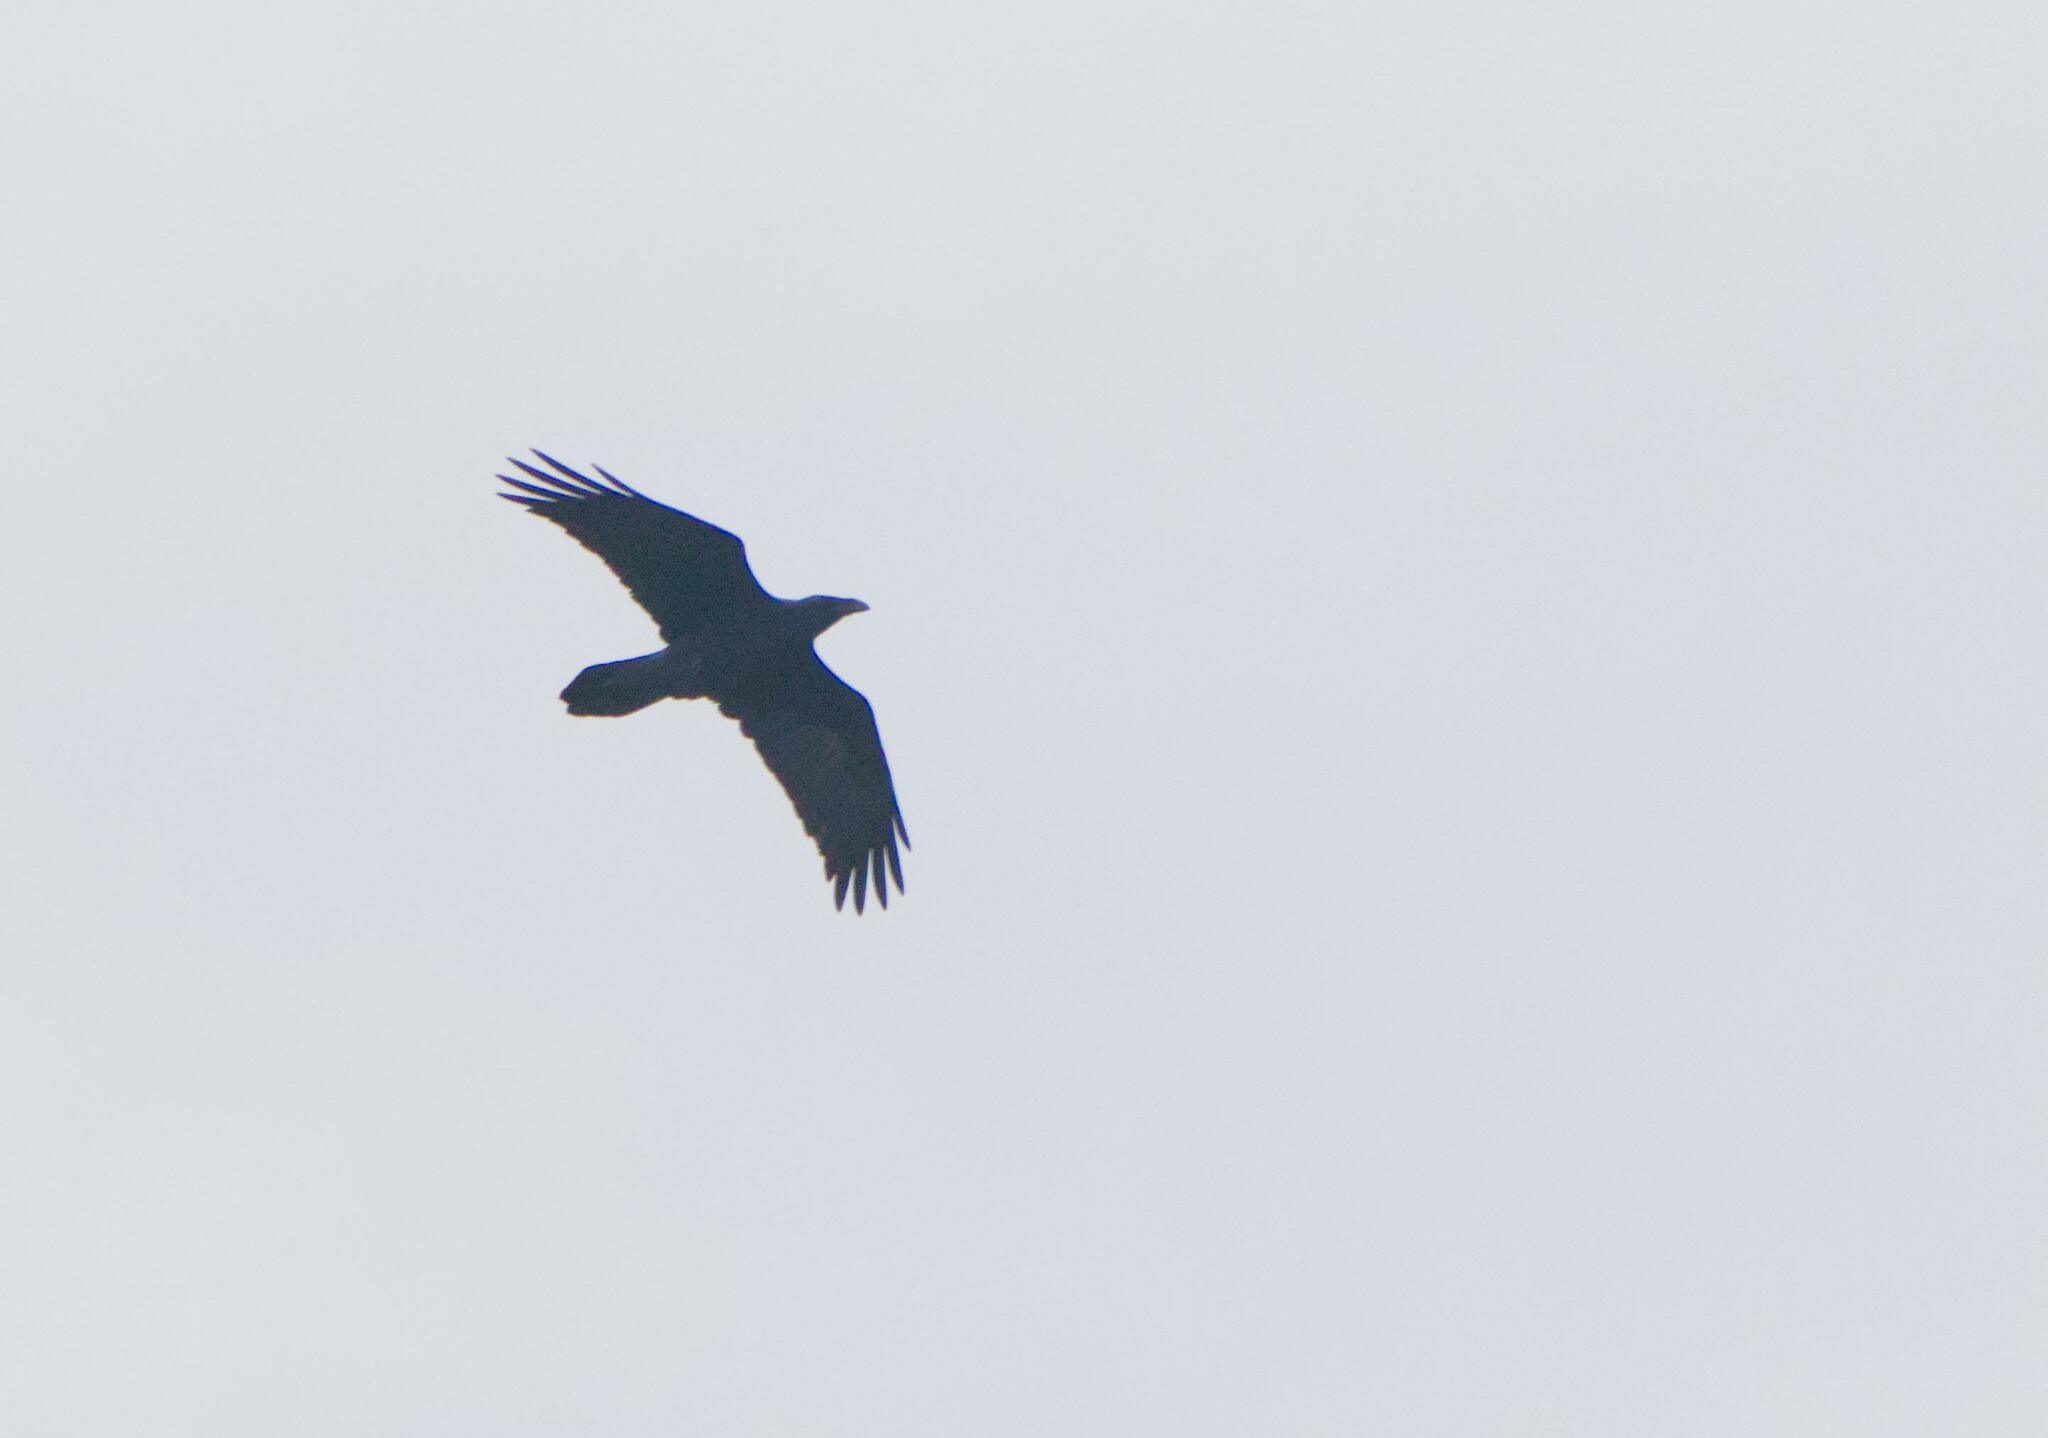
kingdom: Animalia
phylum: Chordata
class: Aves
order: Passeriformes
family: Corvidae
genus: Corvus
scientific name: Corvus corax
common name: Common raven
